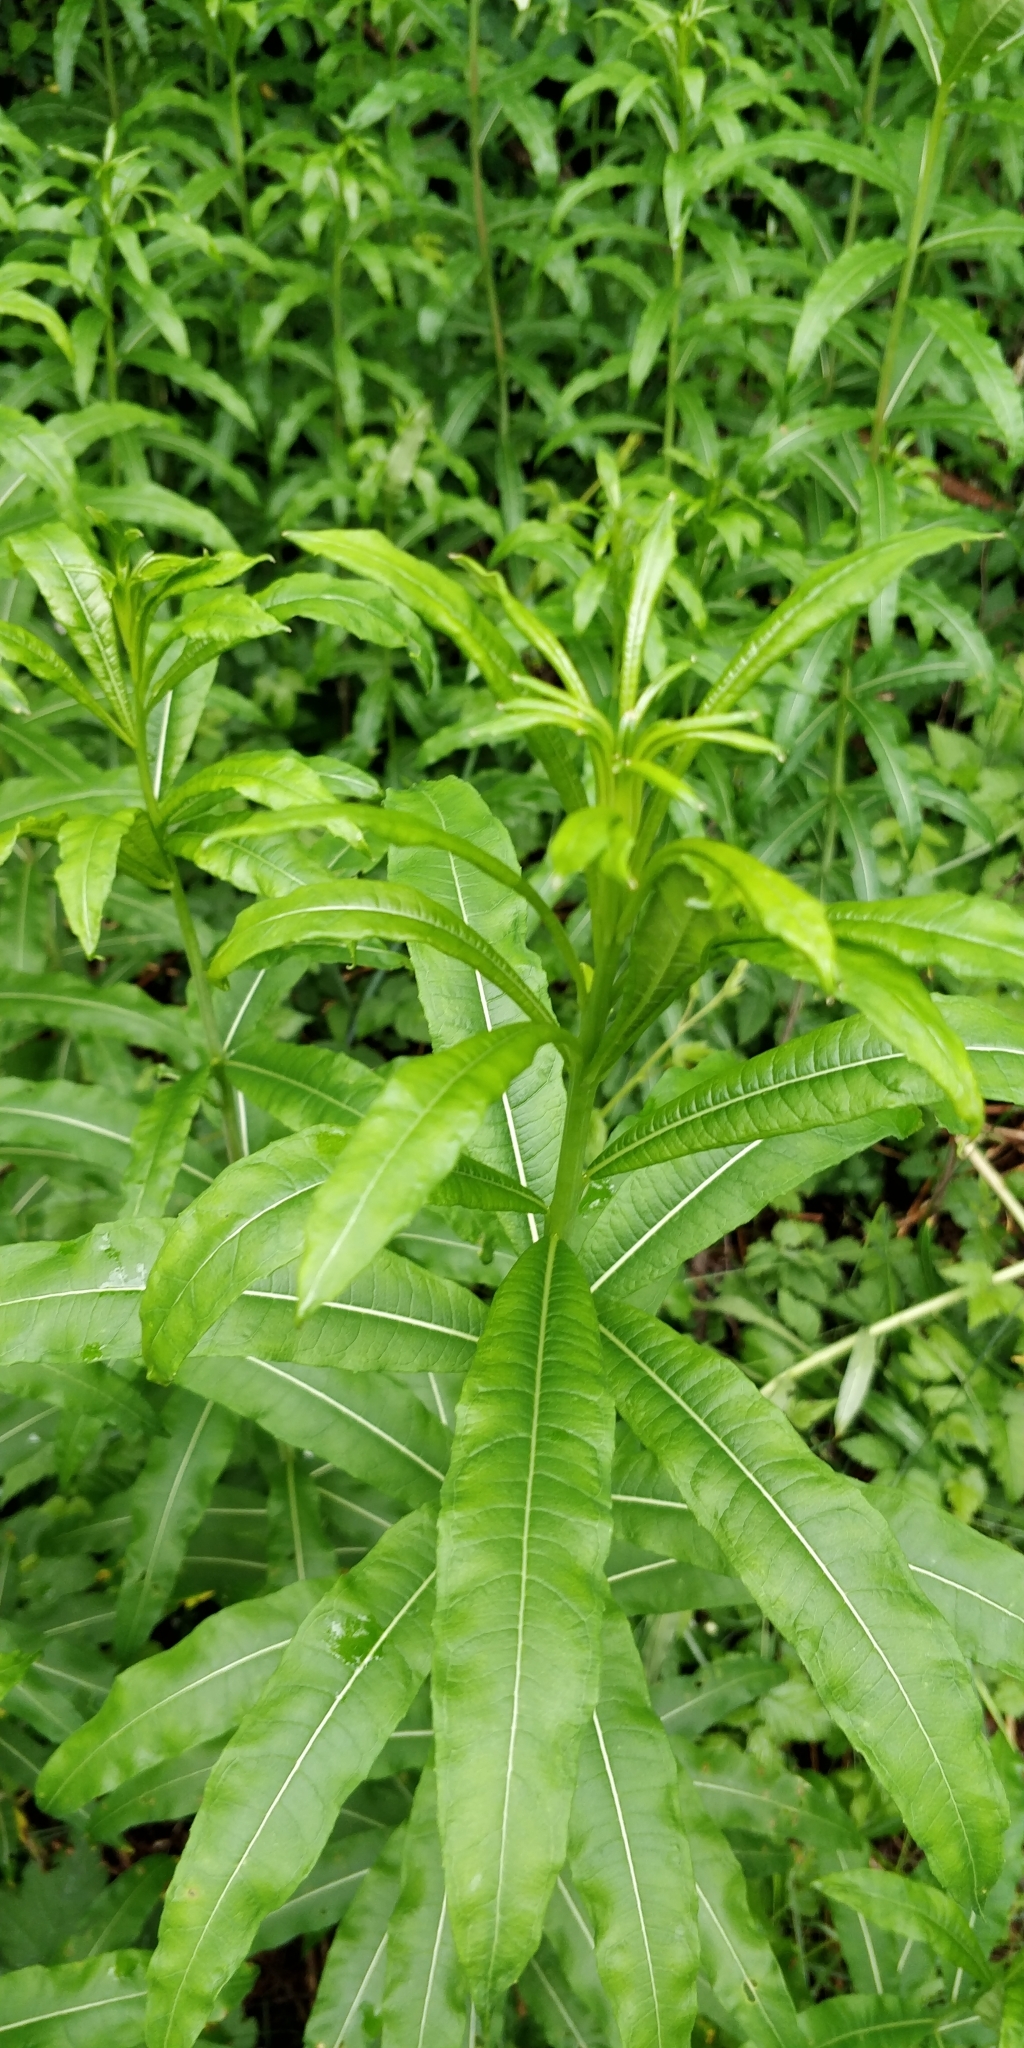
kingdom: Plantae
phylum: Tracheophyta
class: Magnoliopsida
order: Myrtales
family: Onagraceae
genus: Chamaenerion
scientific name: Chamaenerion angustifolium
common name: Fireweed
